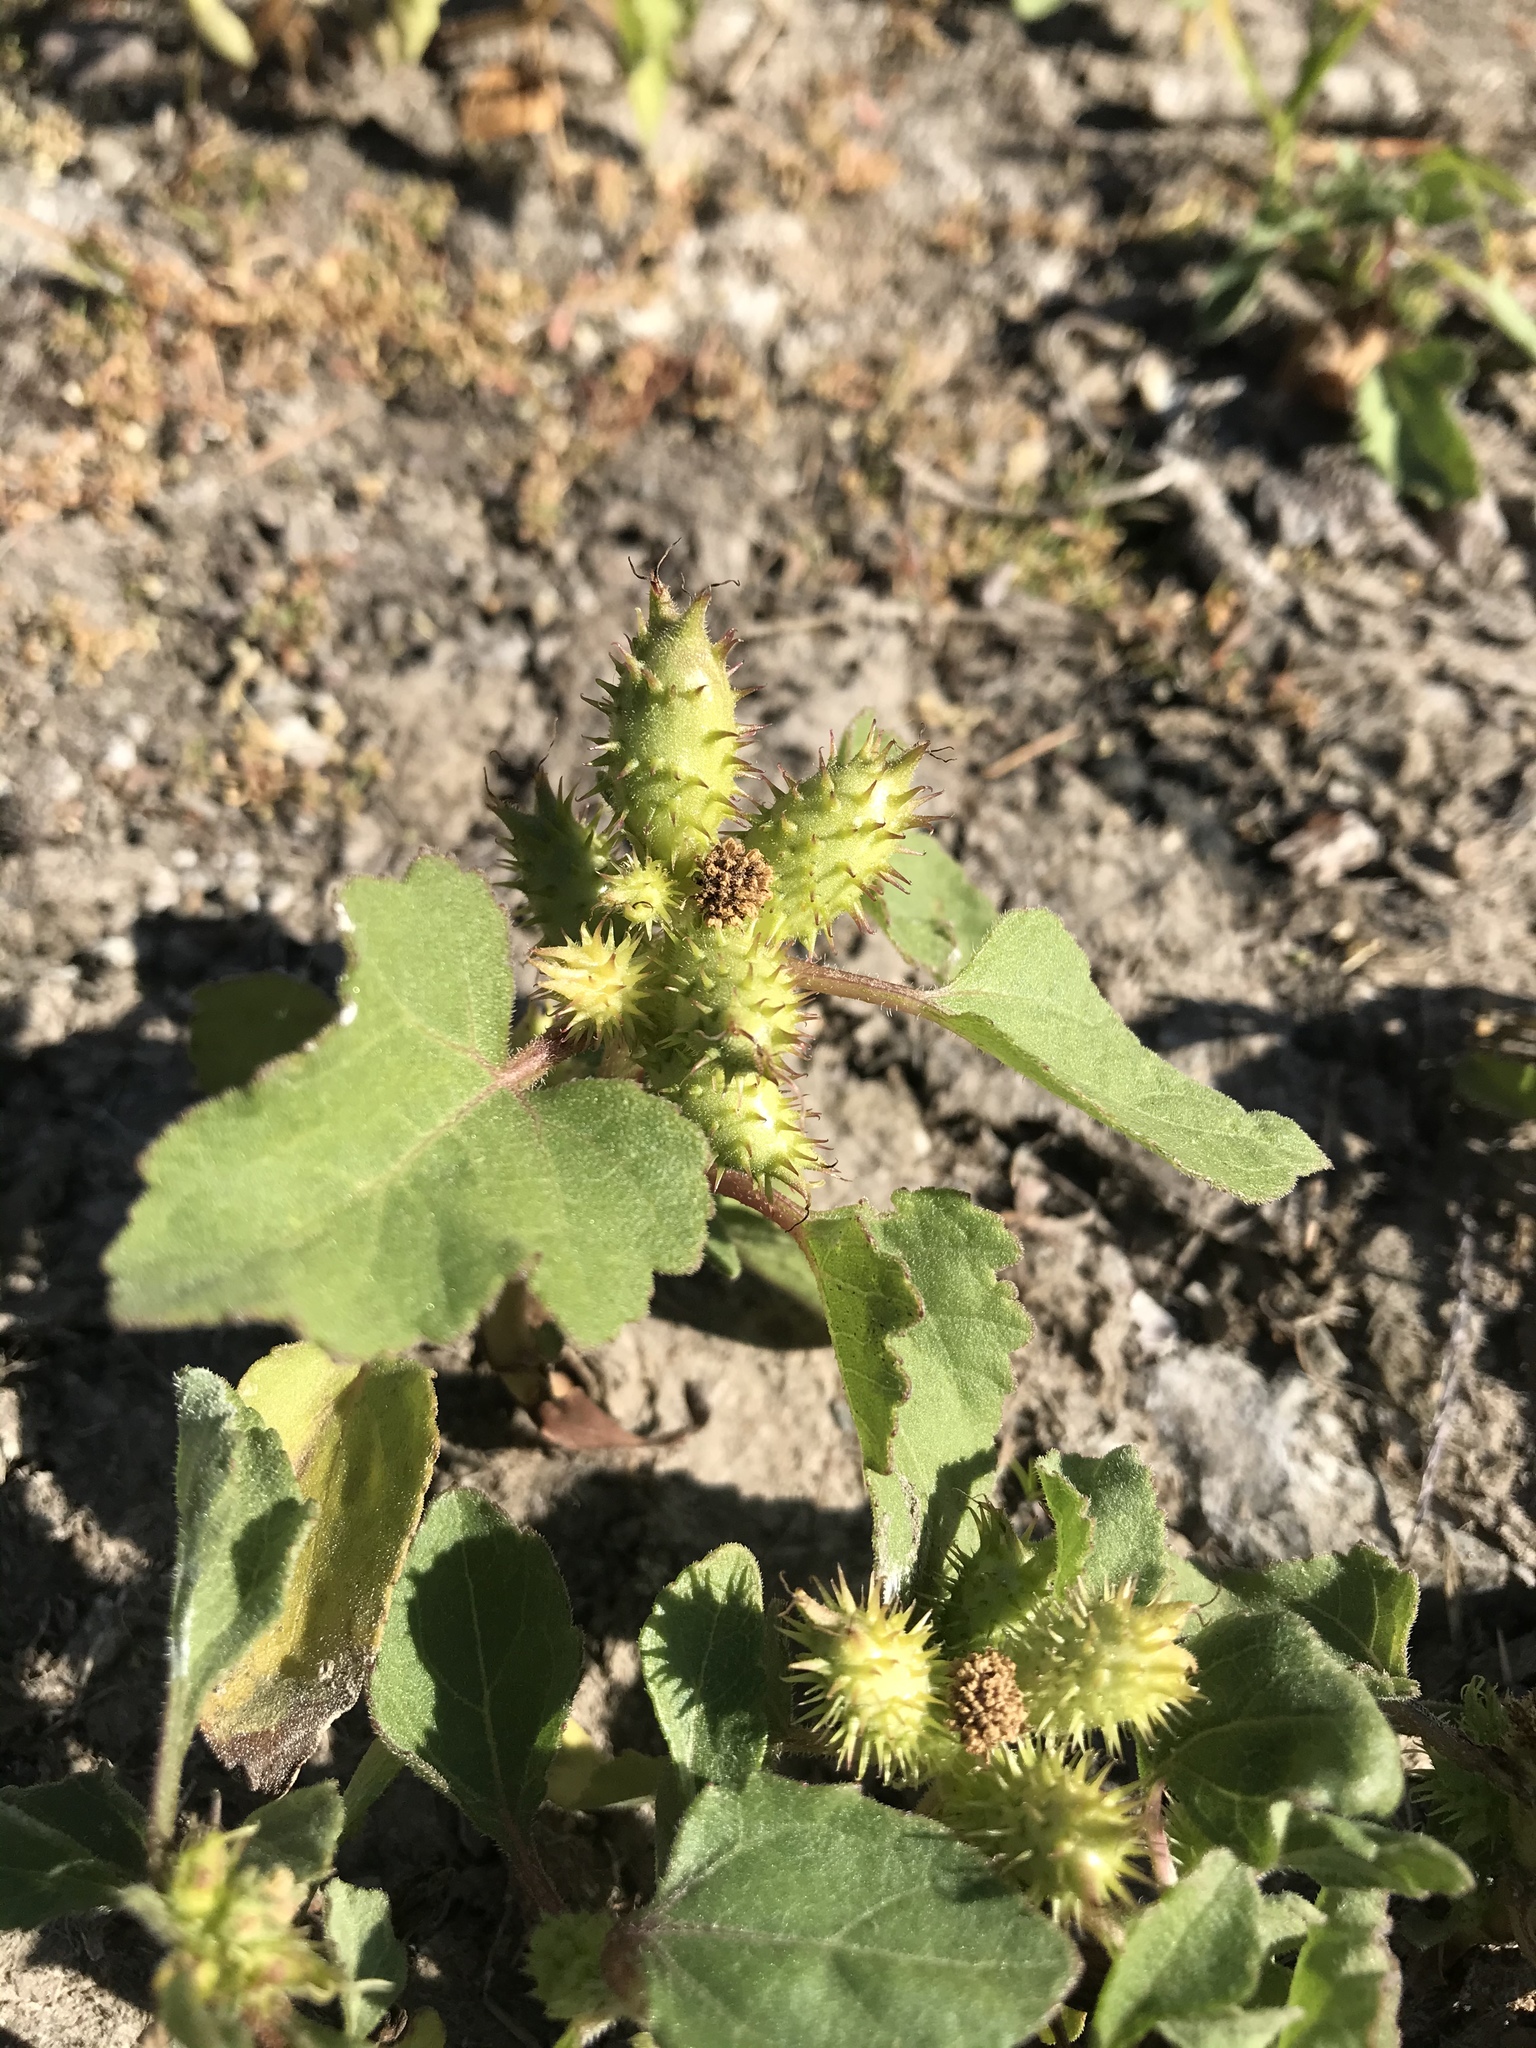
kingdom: Plantae
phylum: Tracheophyta
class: Magnoliopsida
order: Asterales
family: Asteraceae
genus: Xanthium
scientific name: Xanthium strumarium
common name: Rough cocklebur
